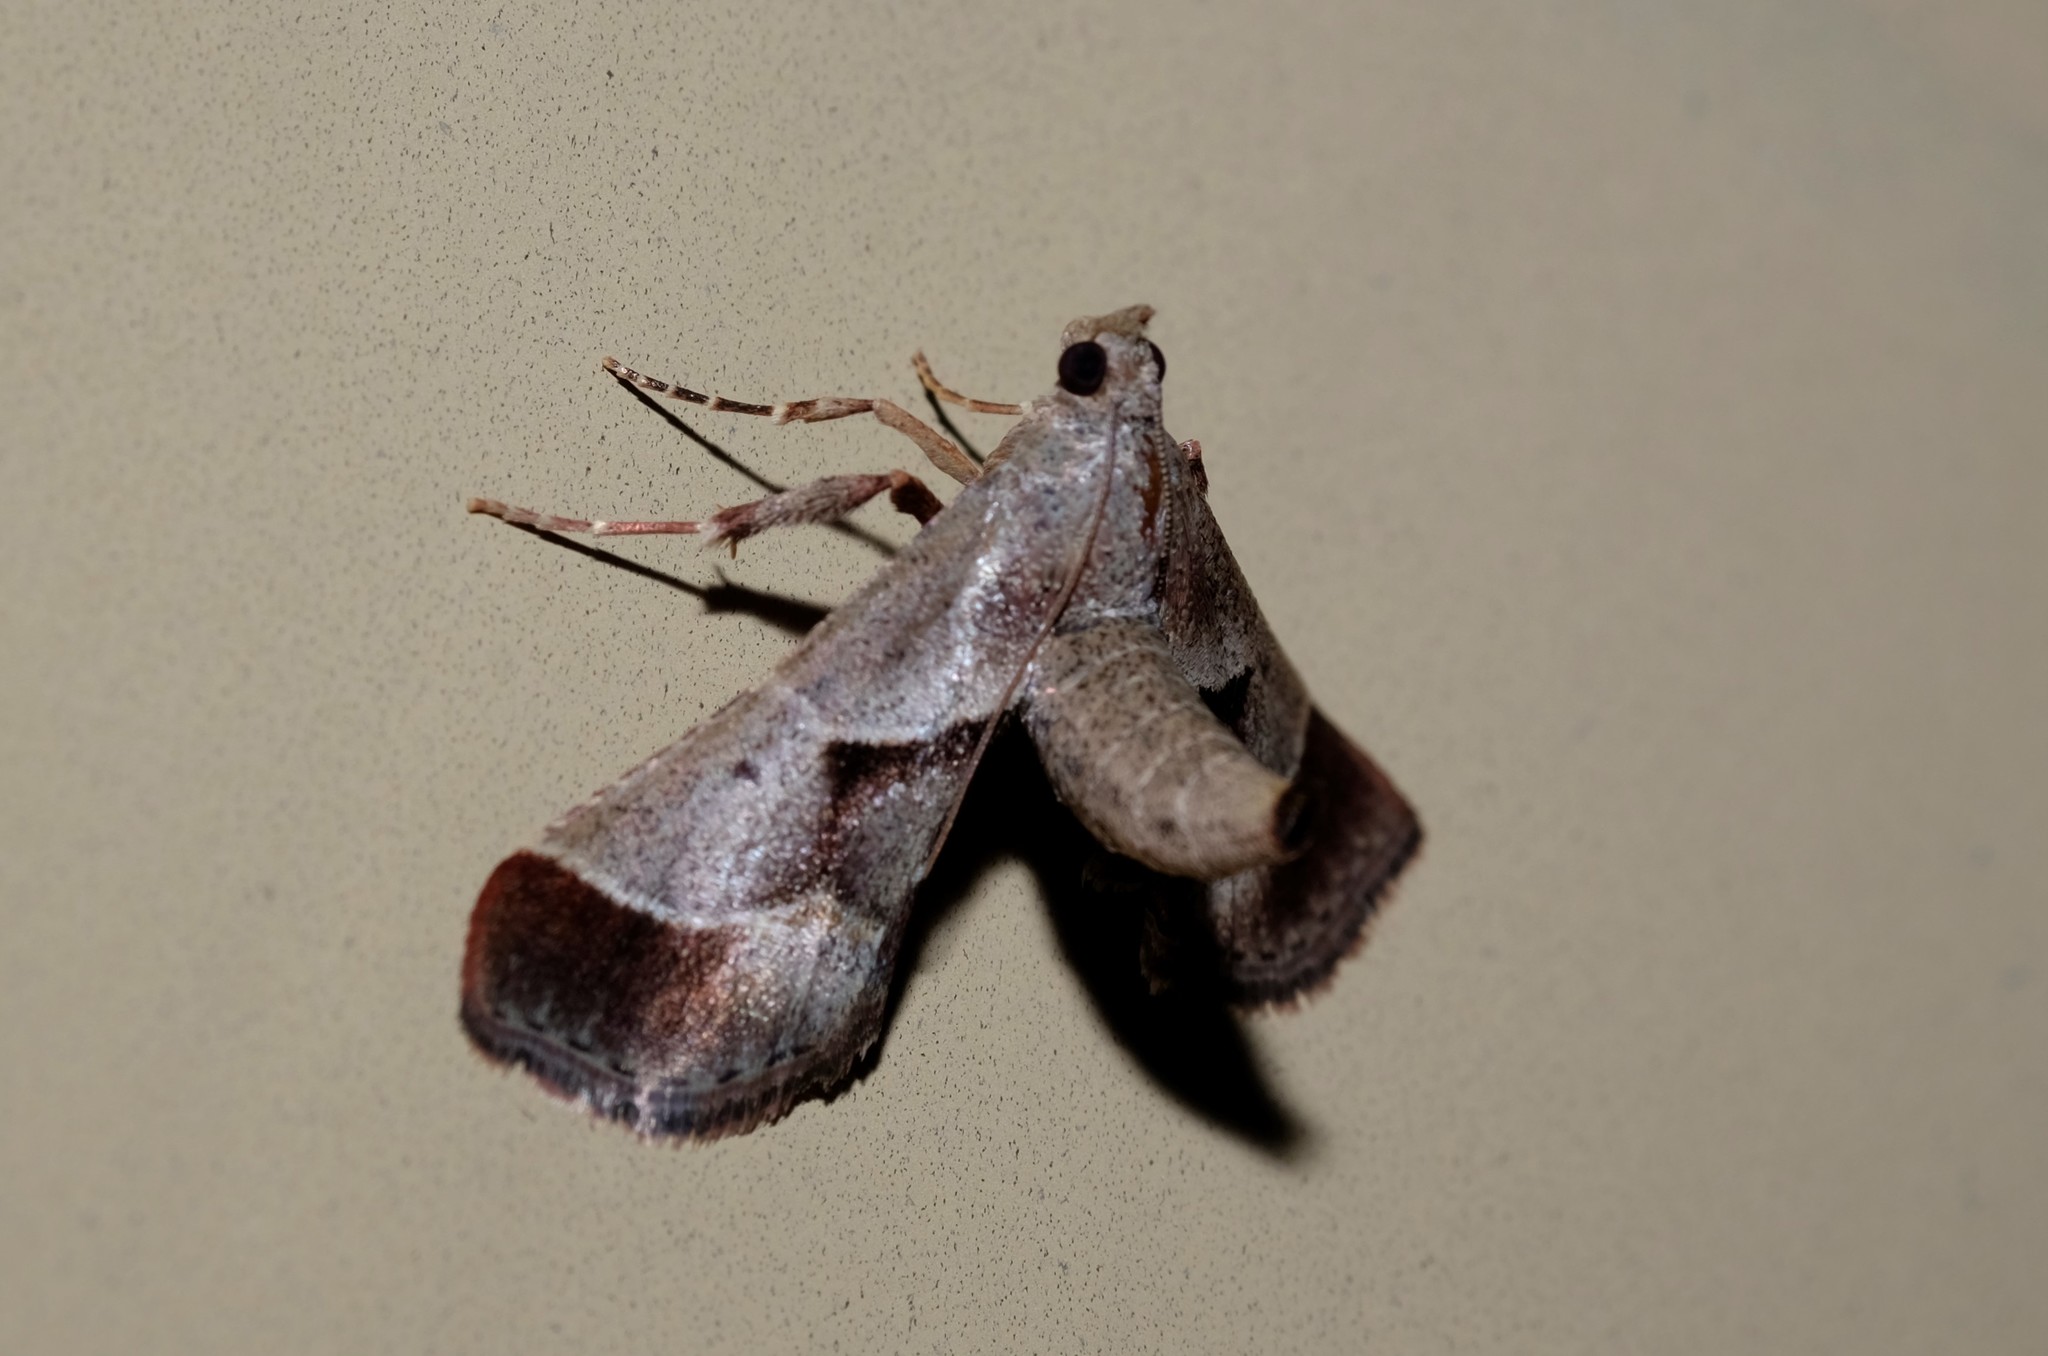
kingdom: Animalia
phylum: Arthropoda
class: Insecta
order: Lepidoptera
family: Pyralidae
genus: Gauna
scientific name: Gauna aegusalis
